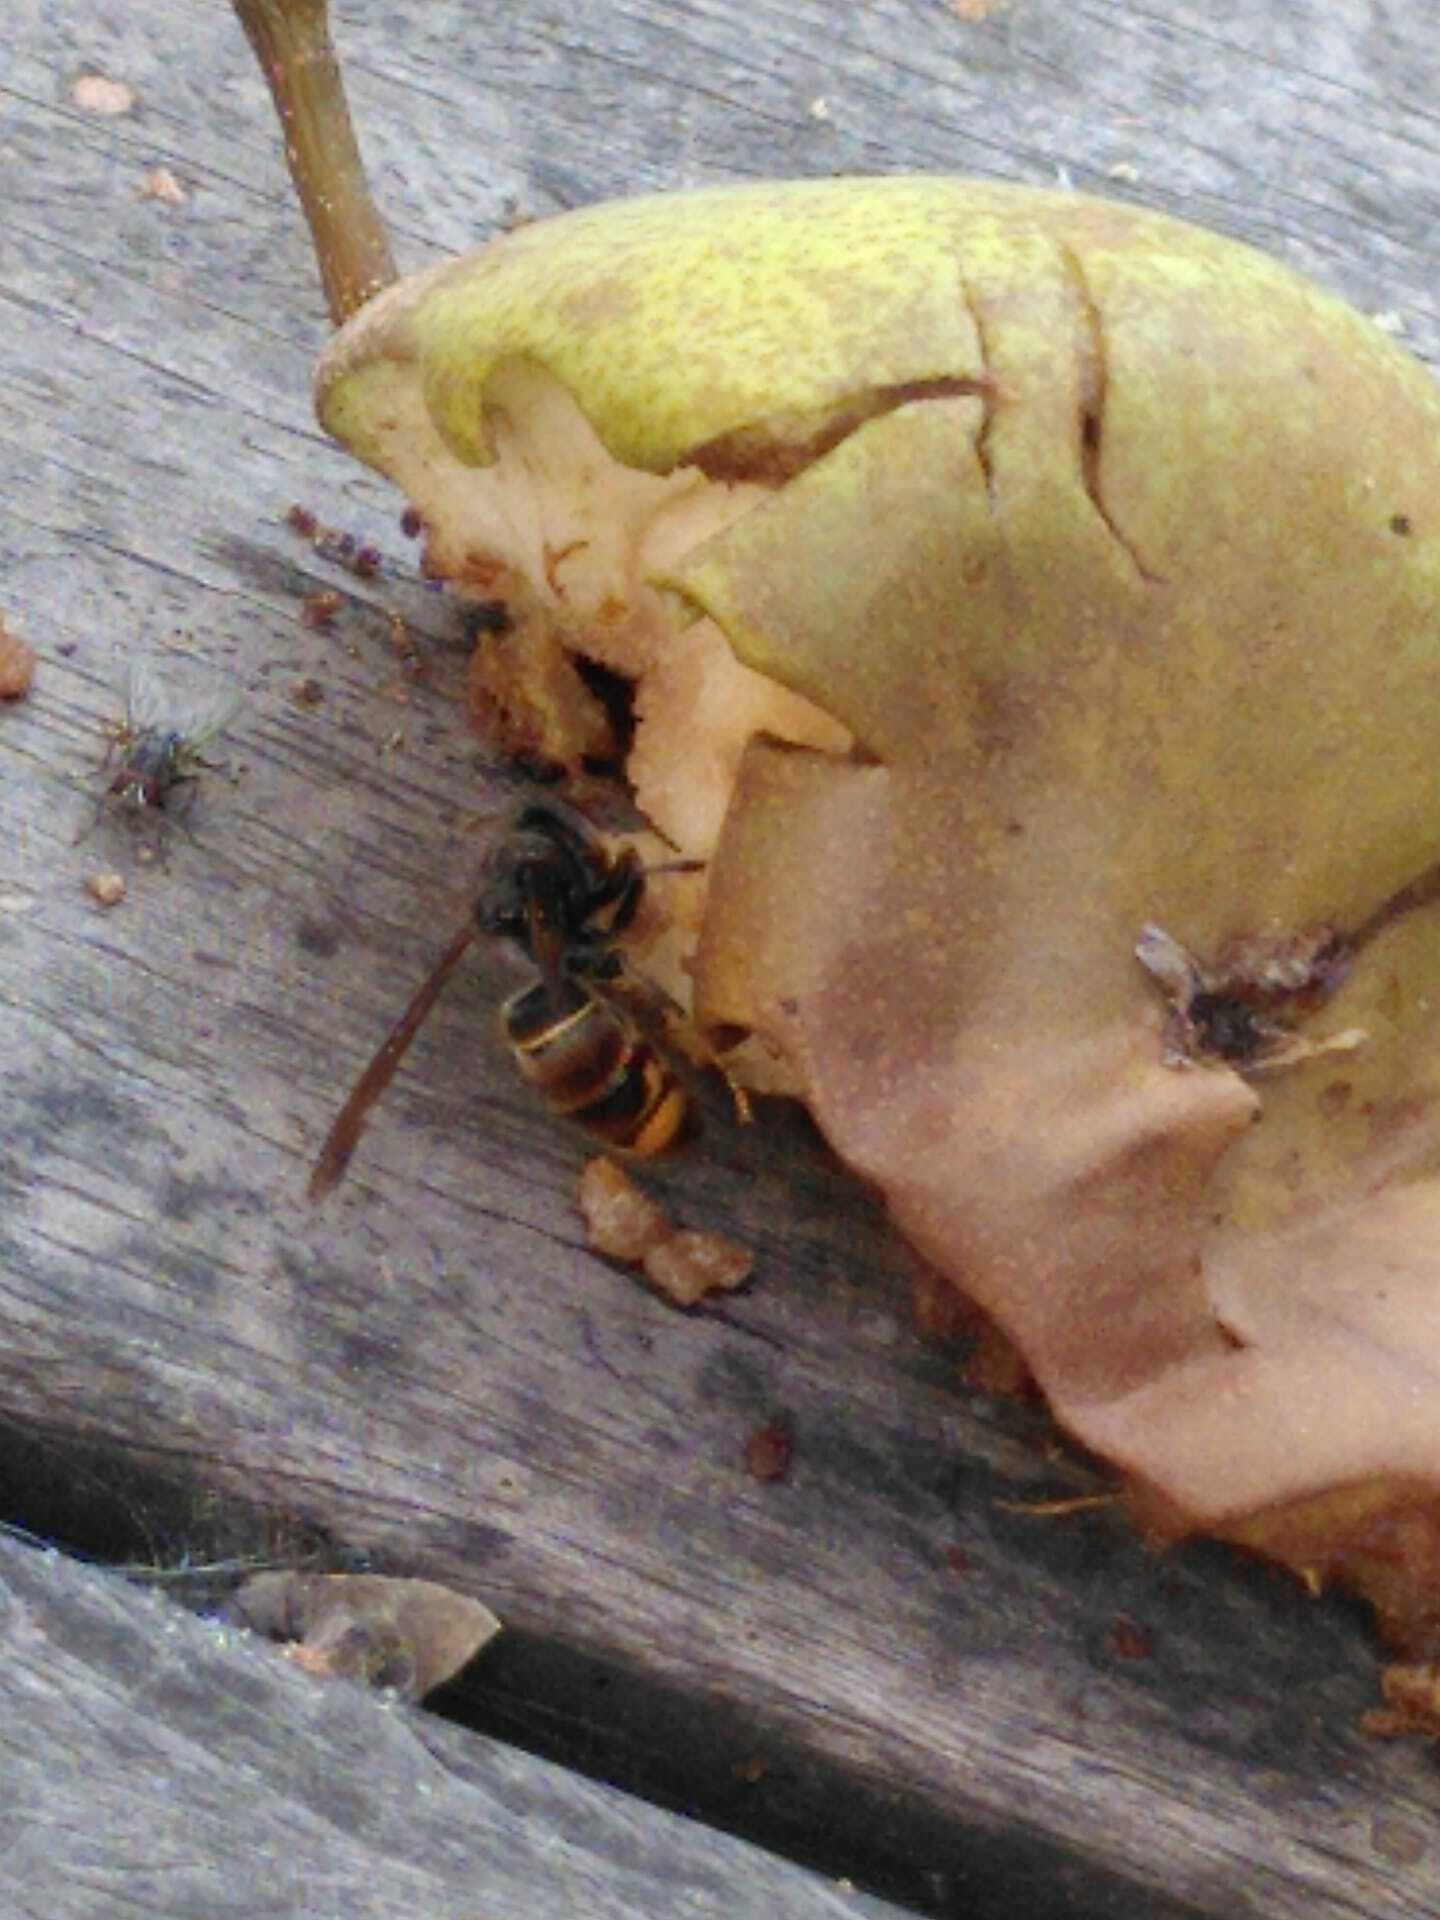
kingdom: Animalia
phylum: Arthropoda
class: Insecta
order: Hymenoptera
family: Vespidae
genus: Vespa
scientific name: Vespa velutina
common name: Asian hornet
